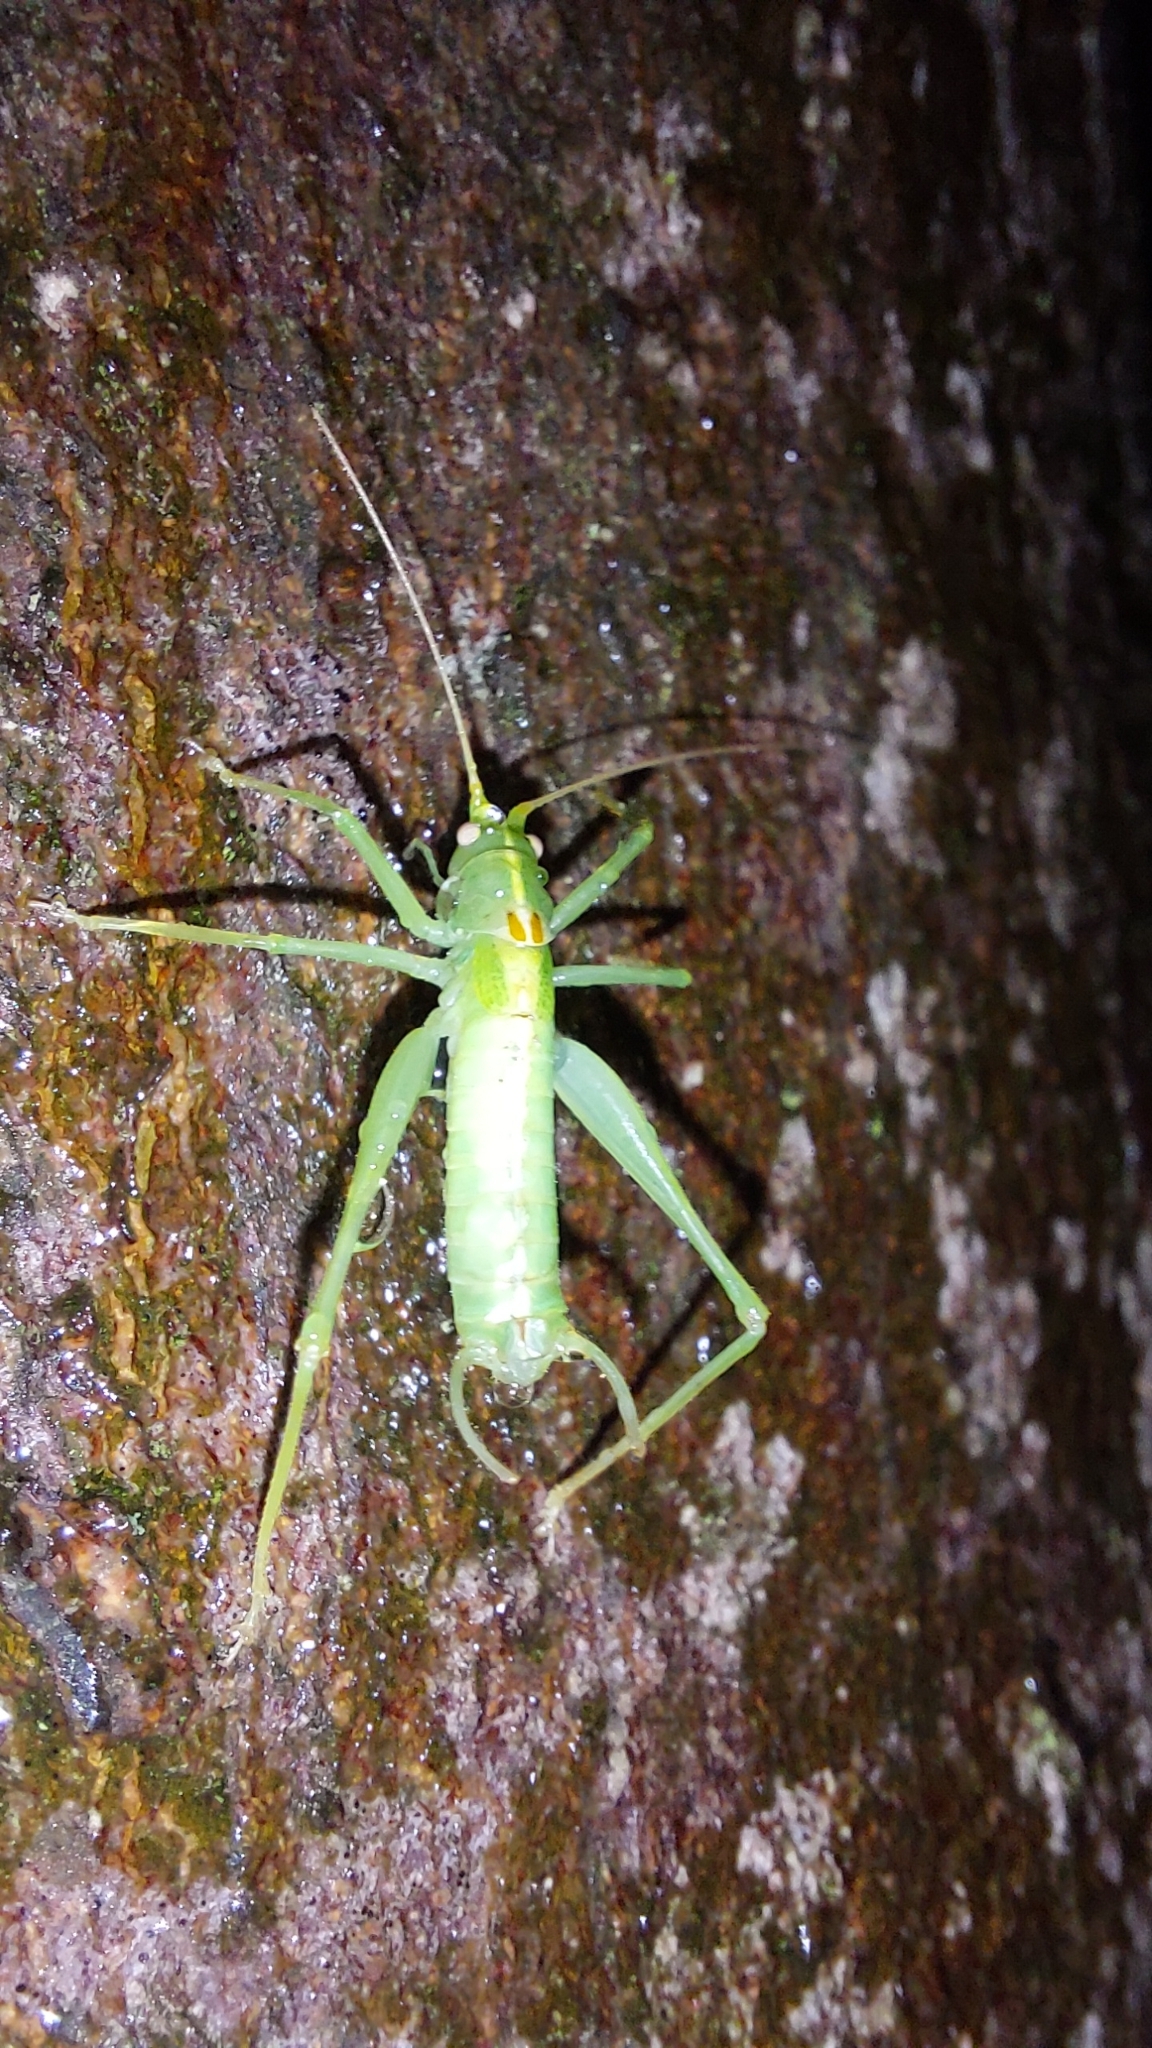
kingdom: Animalia
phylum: Arthropoda
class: Insecta
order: Orthoptera
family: Tettigoniidae
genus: Meconema
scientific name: Meconema meridionale
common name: Southern oak bush-cricket
